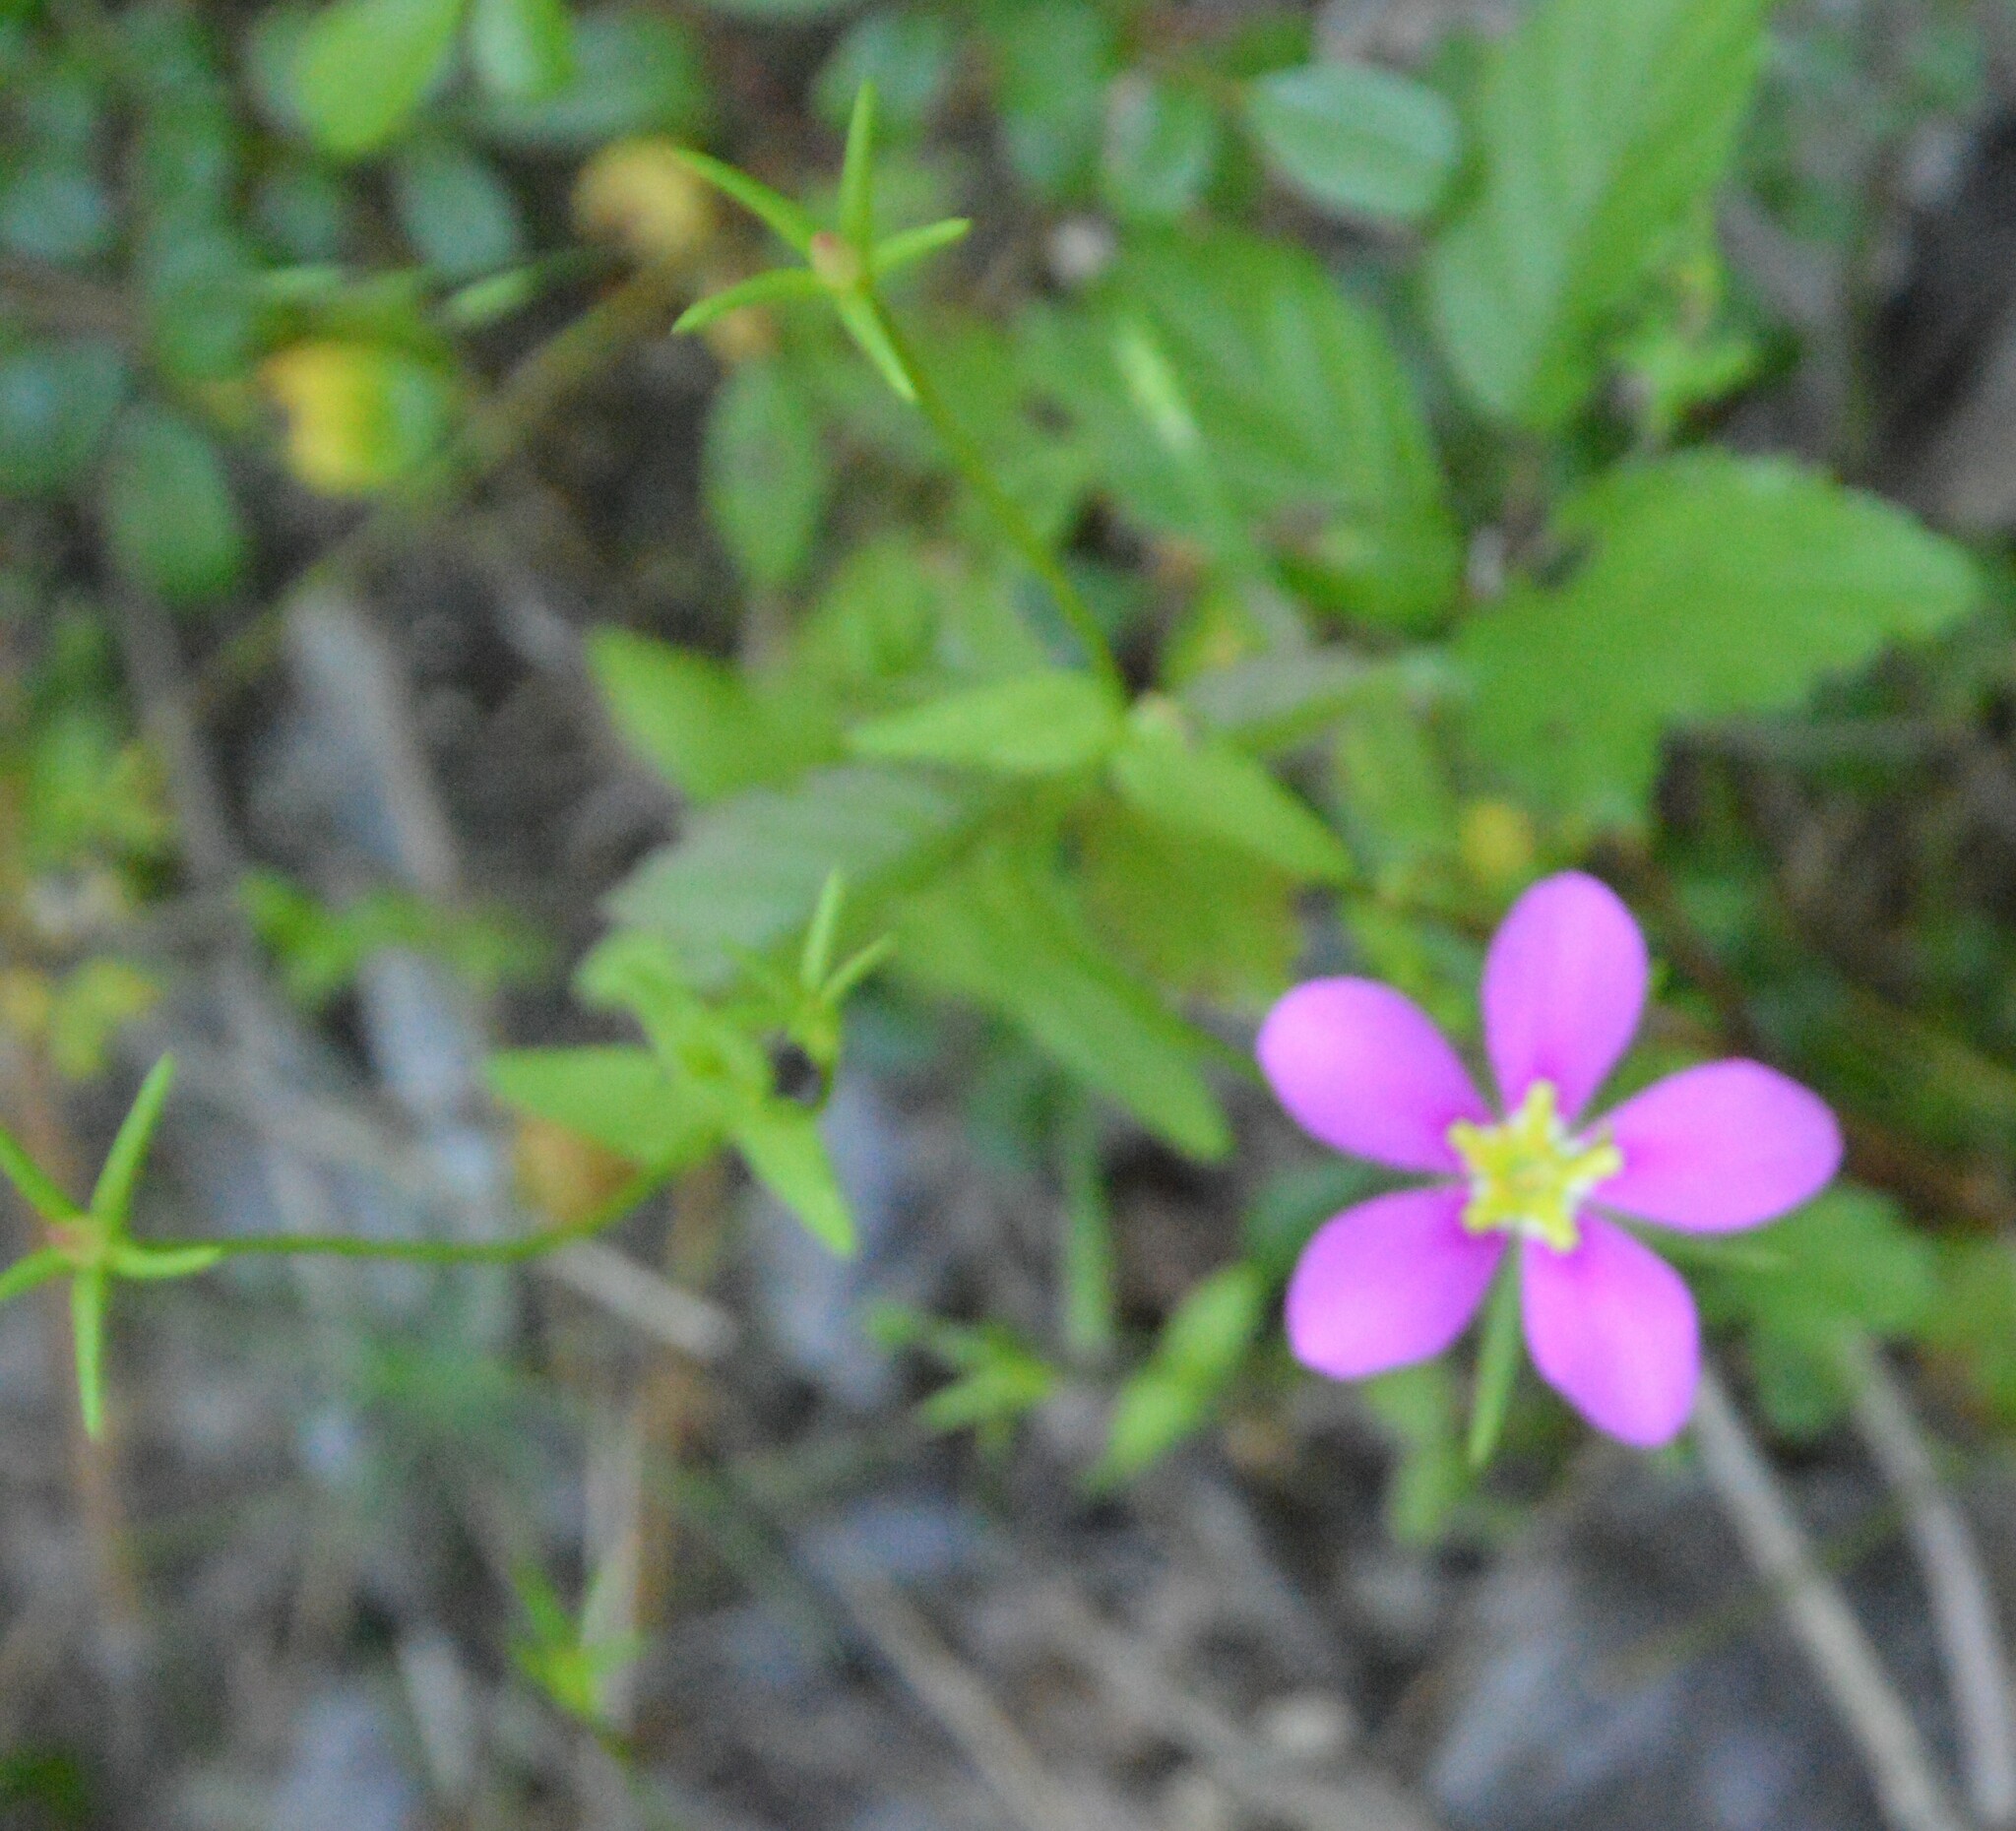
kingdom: Plantae
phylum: Tracheophyta
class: Magnoliopsida
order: Gentianales
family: Gentianaceae
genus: Sabatia
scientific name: Sabatia campestris
